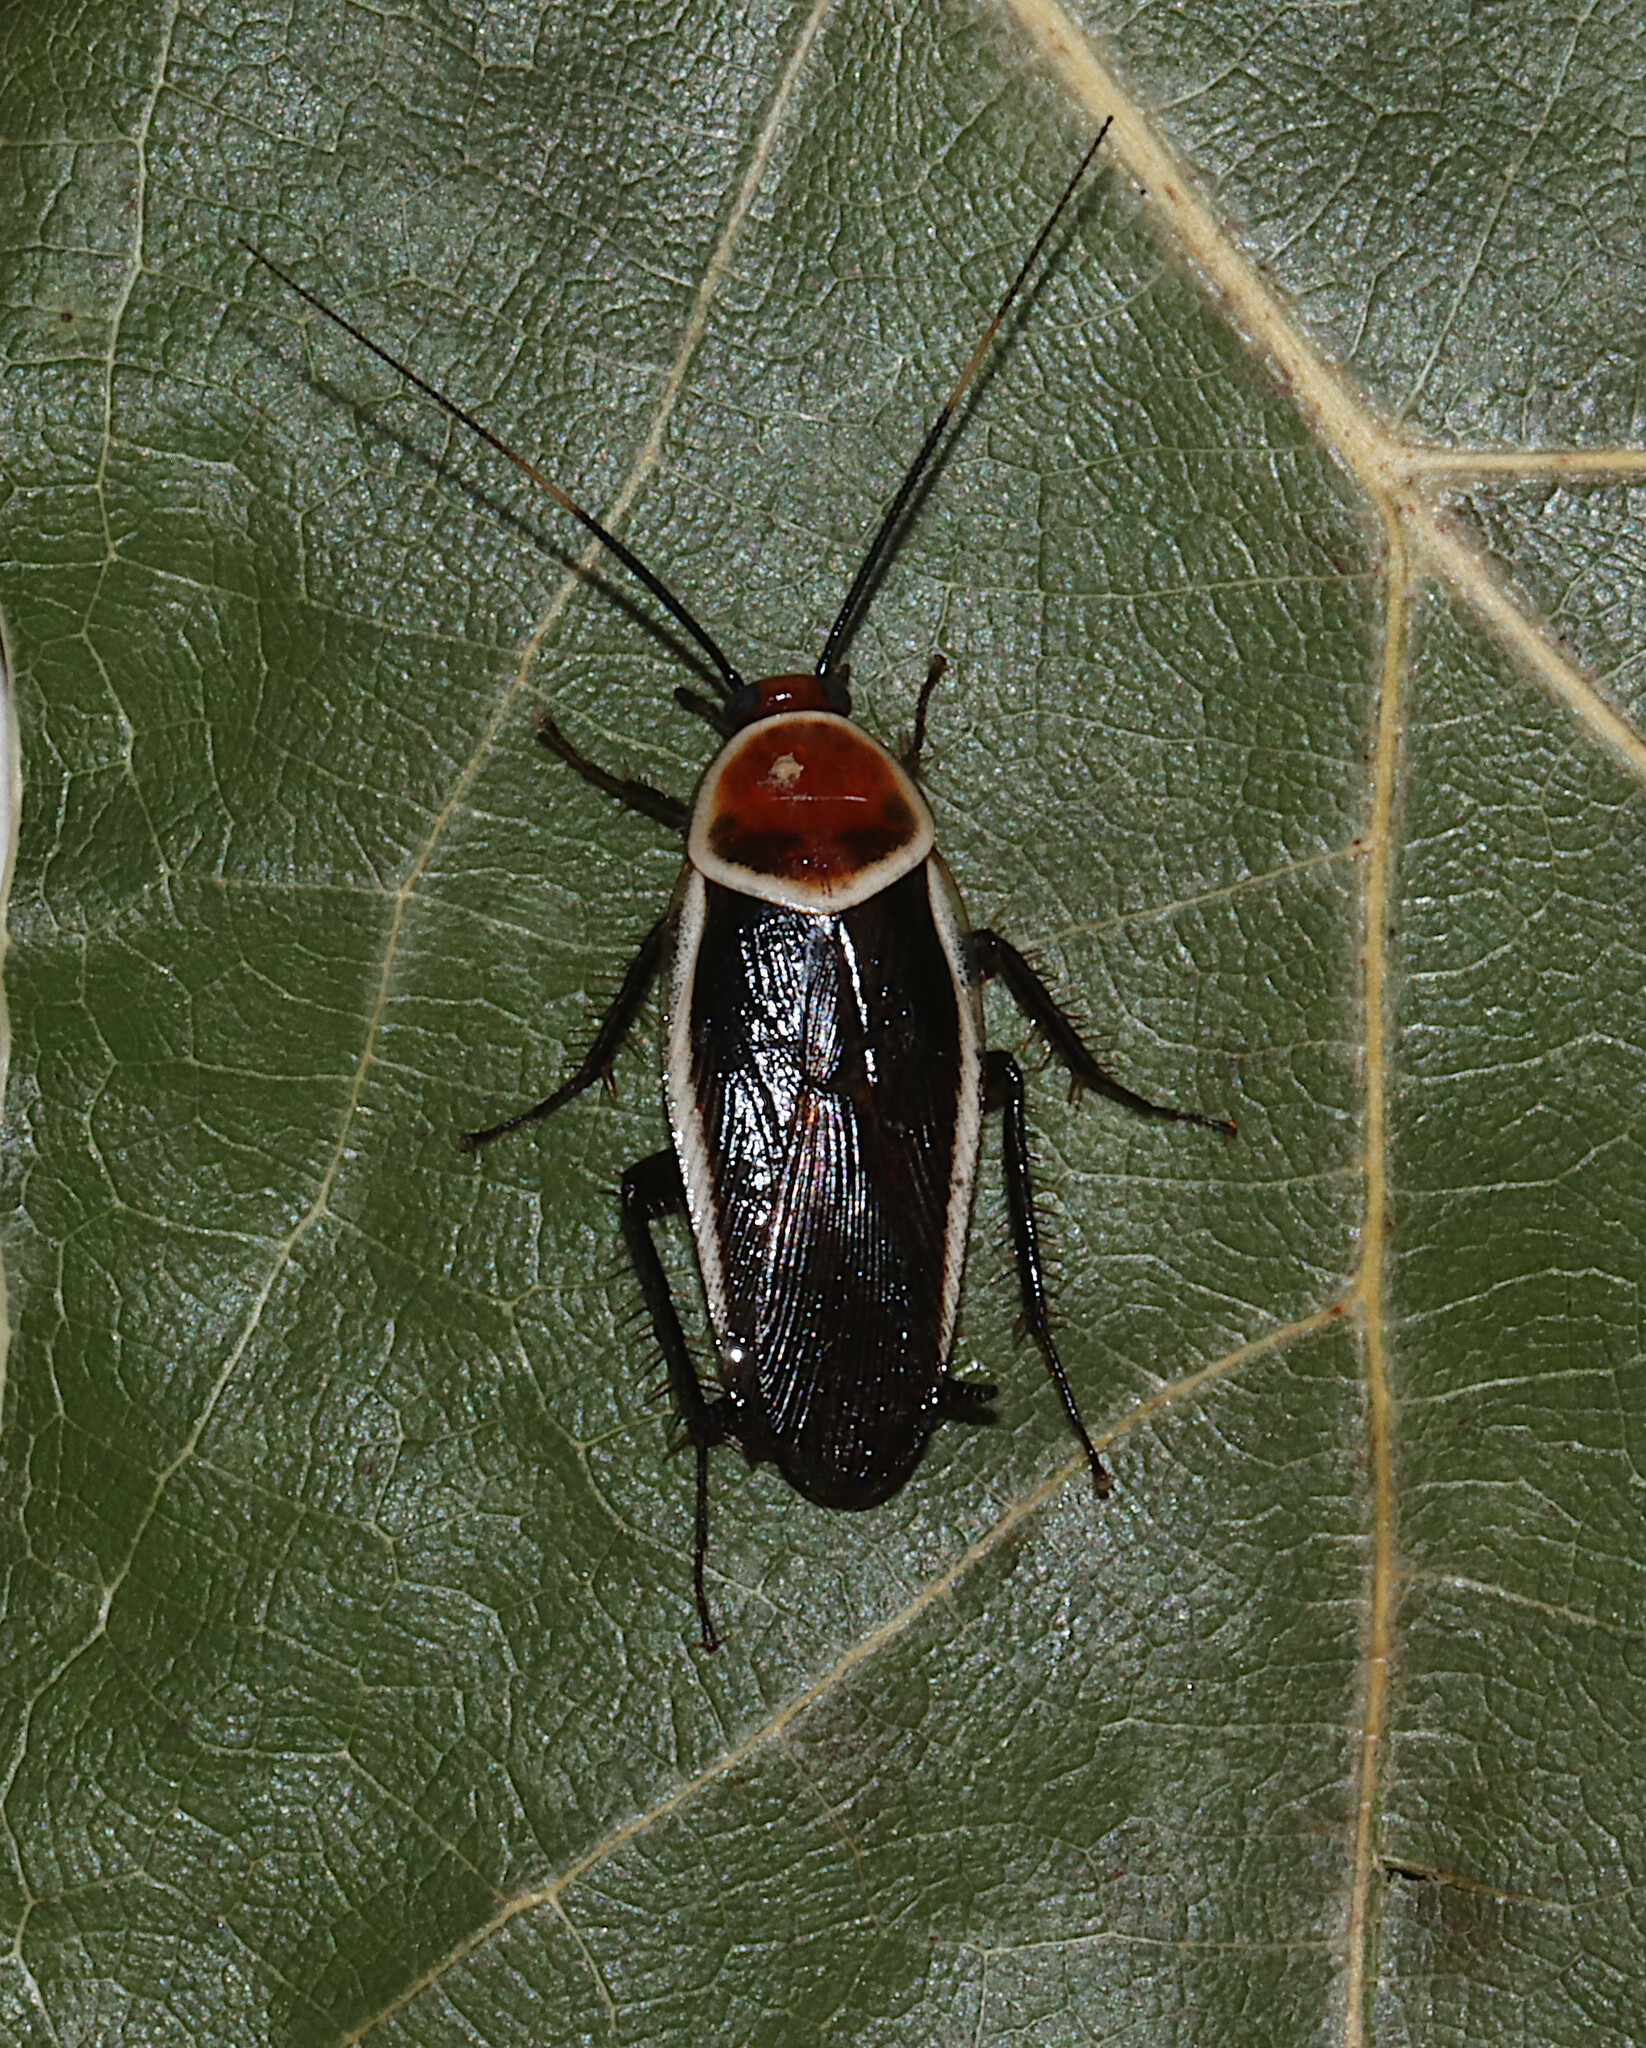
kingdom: Animalia
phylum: Arthropoda
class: Insecta
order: Blattodea
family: Ectobiidae
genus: Pseudomops
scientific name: Pseudomops septentrionalis
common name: Pale-bordered field cockroach
